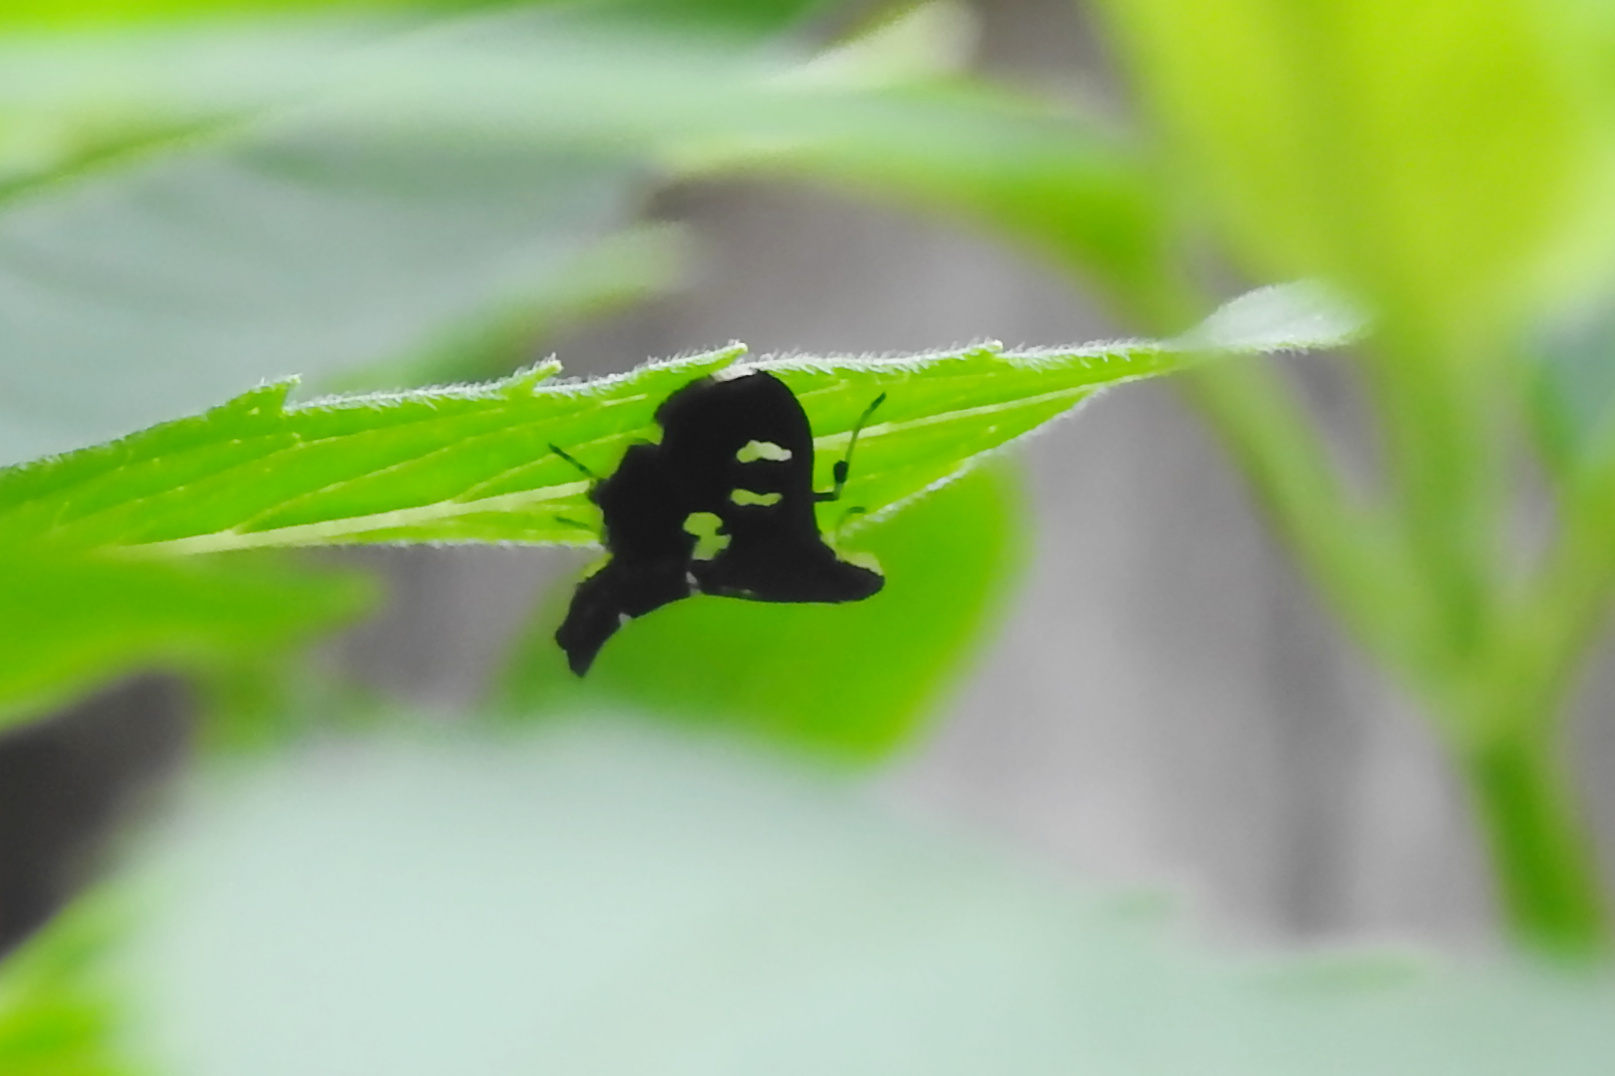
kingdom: Animalia
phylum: Arthropoda
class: Insecta
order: Lepidoptera
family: Crambidae
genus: Desmia
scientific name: Desmia
